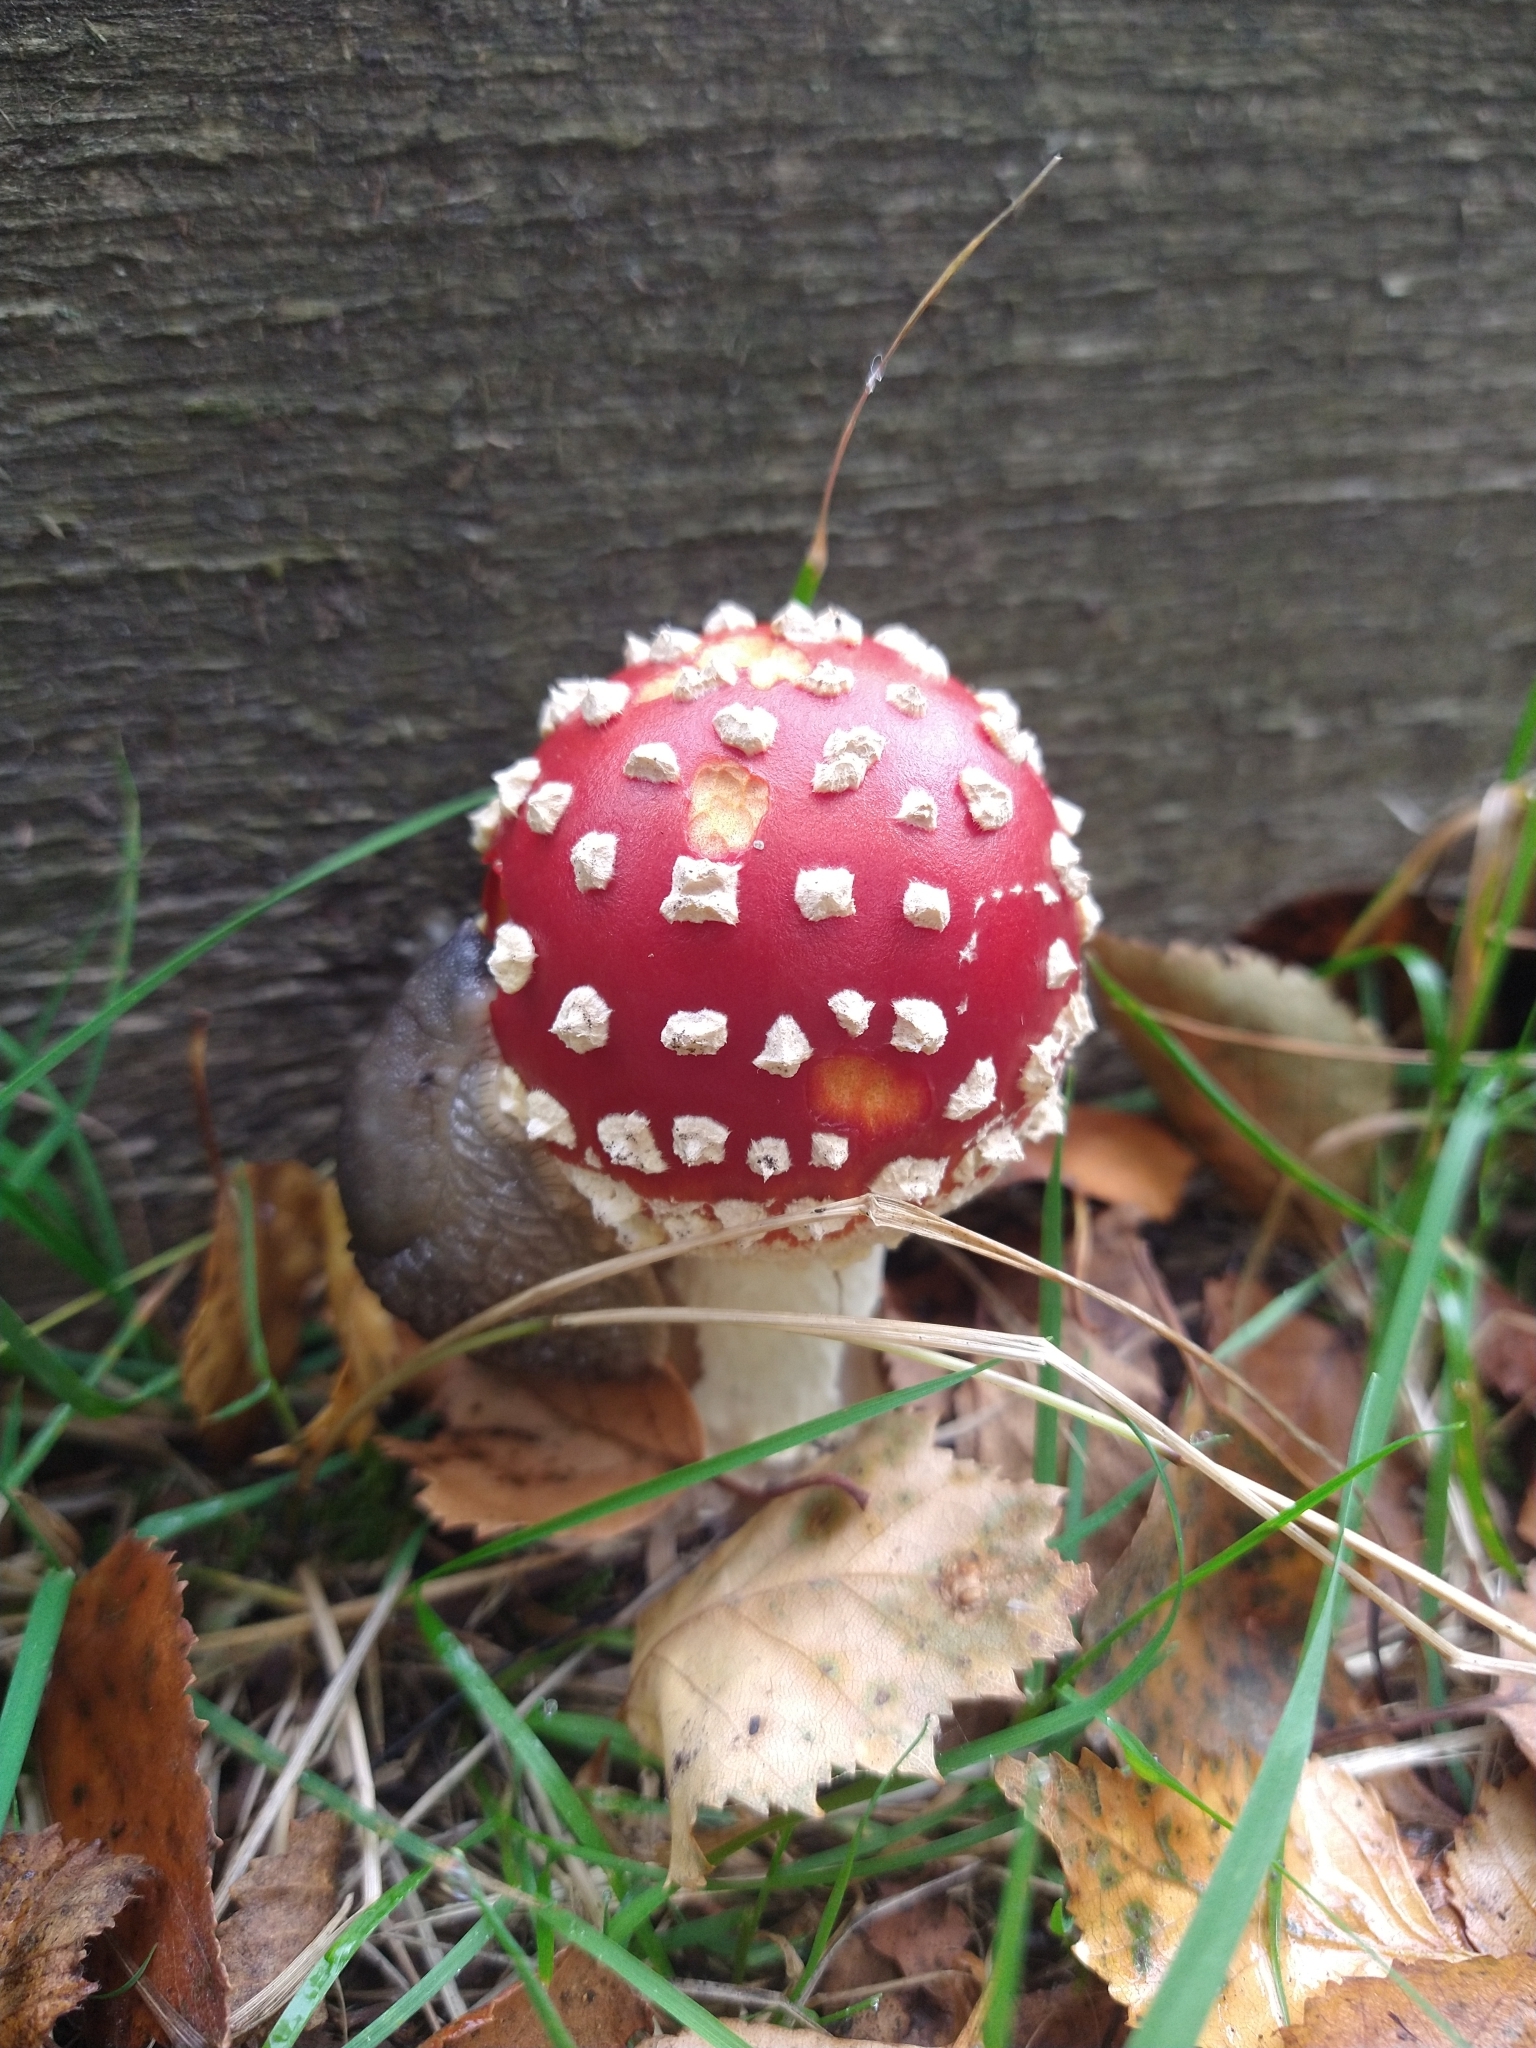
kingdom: Fungi
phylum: Basidiomycota
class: Agaricomycetes
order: Agaricales
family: Amanitaceae
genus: Amanita
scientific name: Amanita muscaria
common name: Fly agaric
